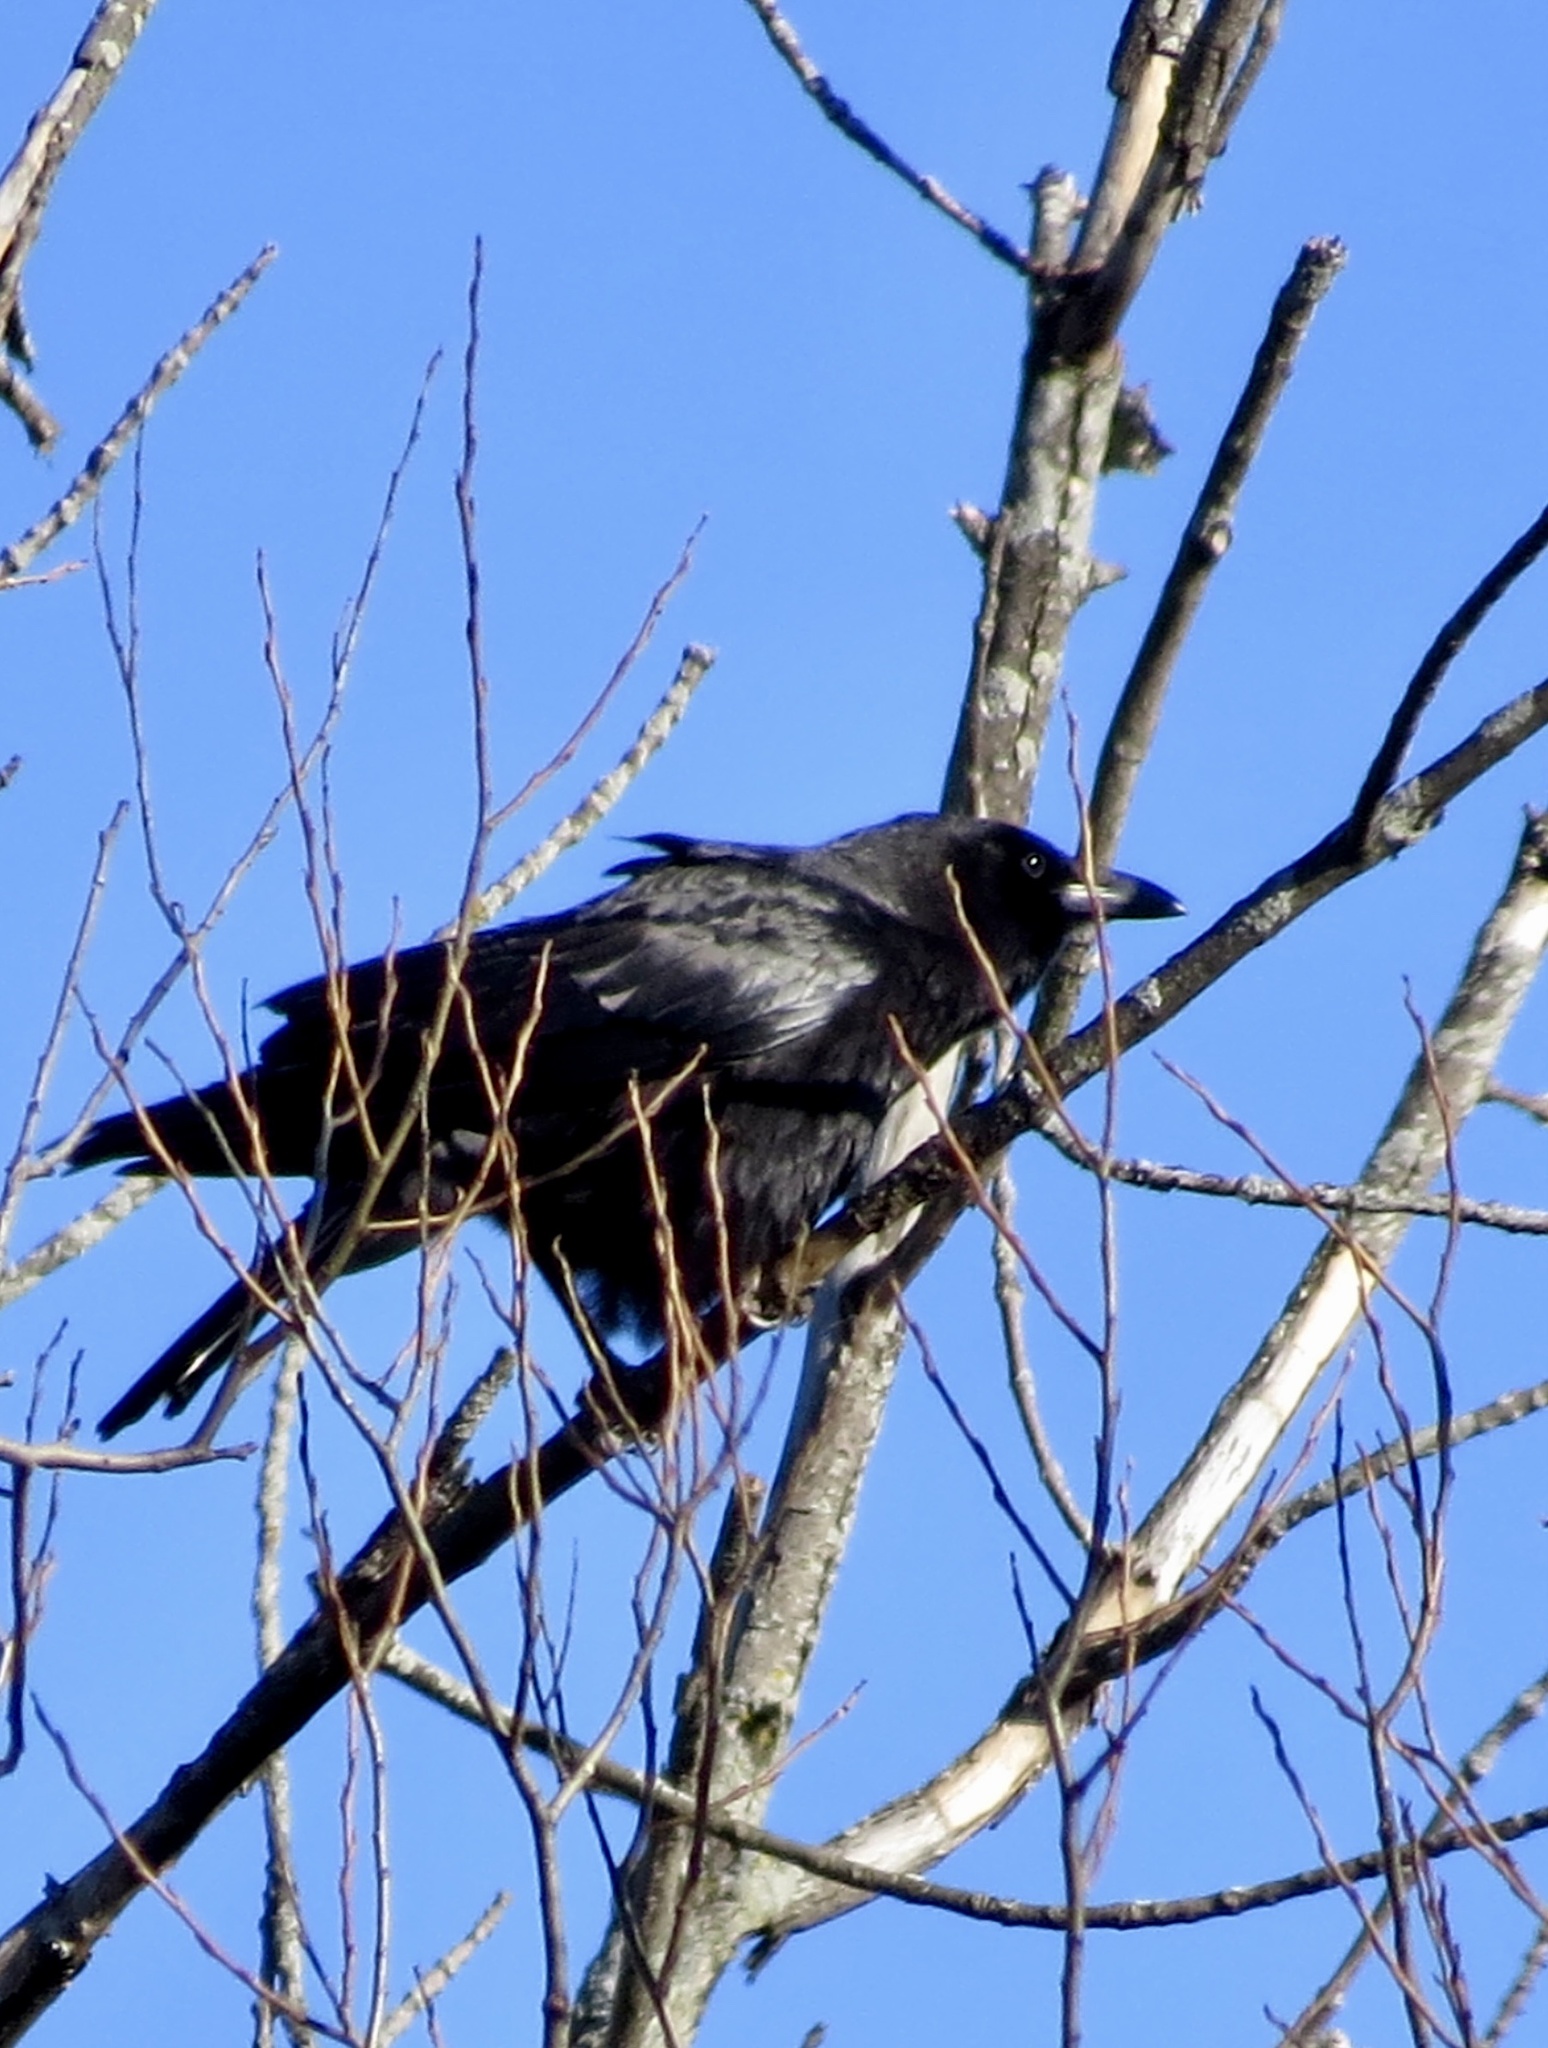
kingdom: Animalia
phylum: Chordata
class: Aves
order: Passeriformes
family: Corvidae
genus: Corvus
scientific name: Corvus brachyrhynchos
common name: American crow
